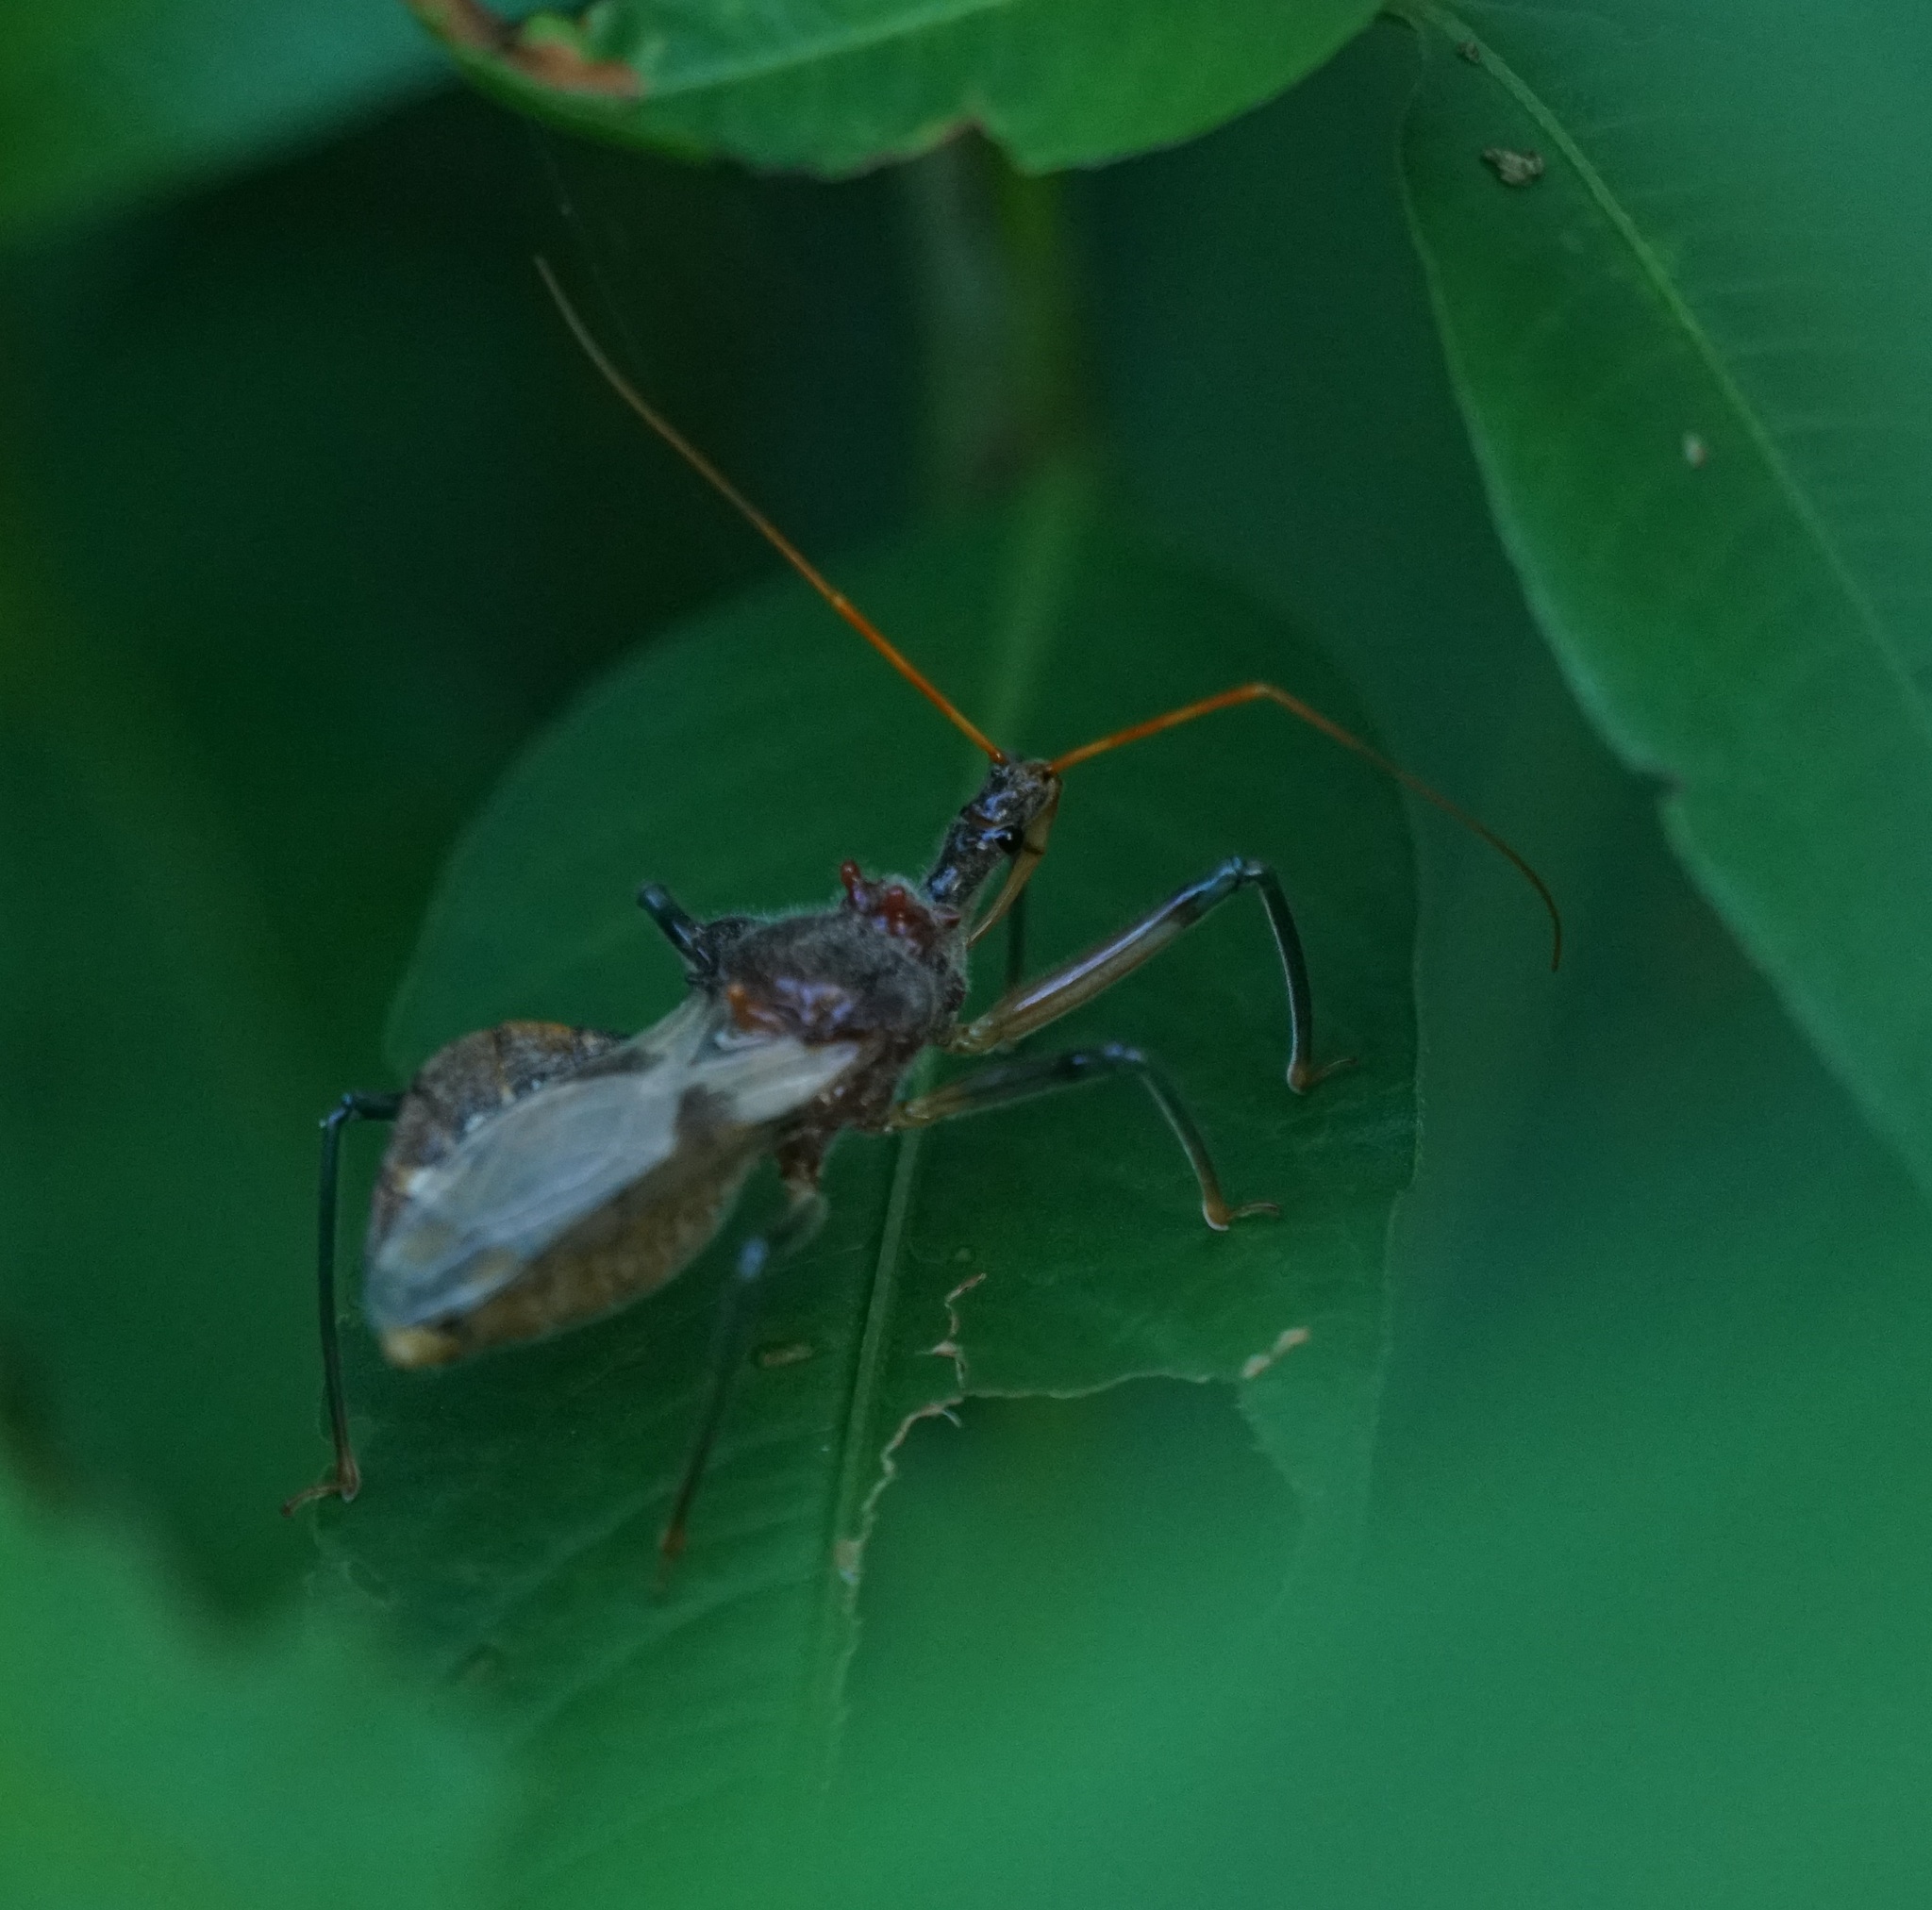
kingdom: Animalia
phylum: Arthropoda
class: Insecta
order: Hemiptera
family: Reduviidae
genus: Pristhesancus
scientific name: Pristhesancus plagipennis
